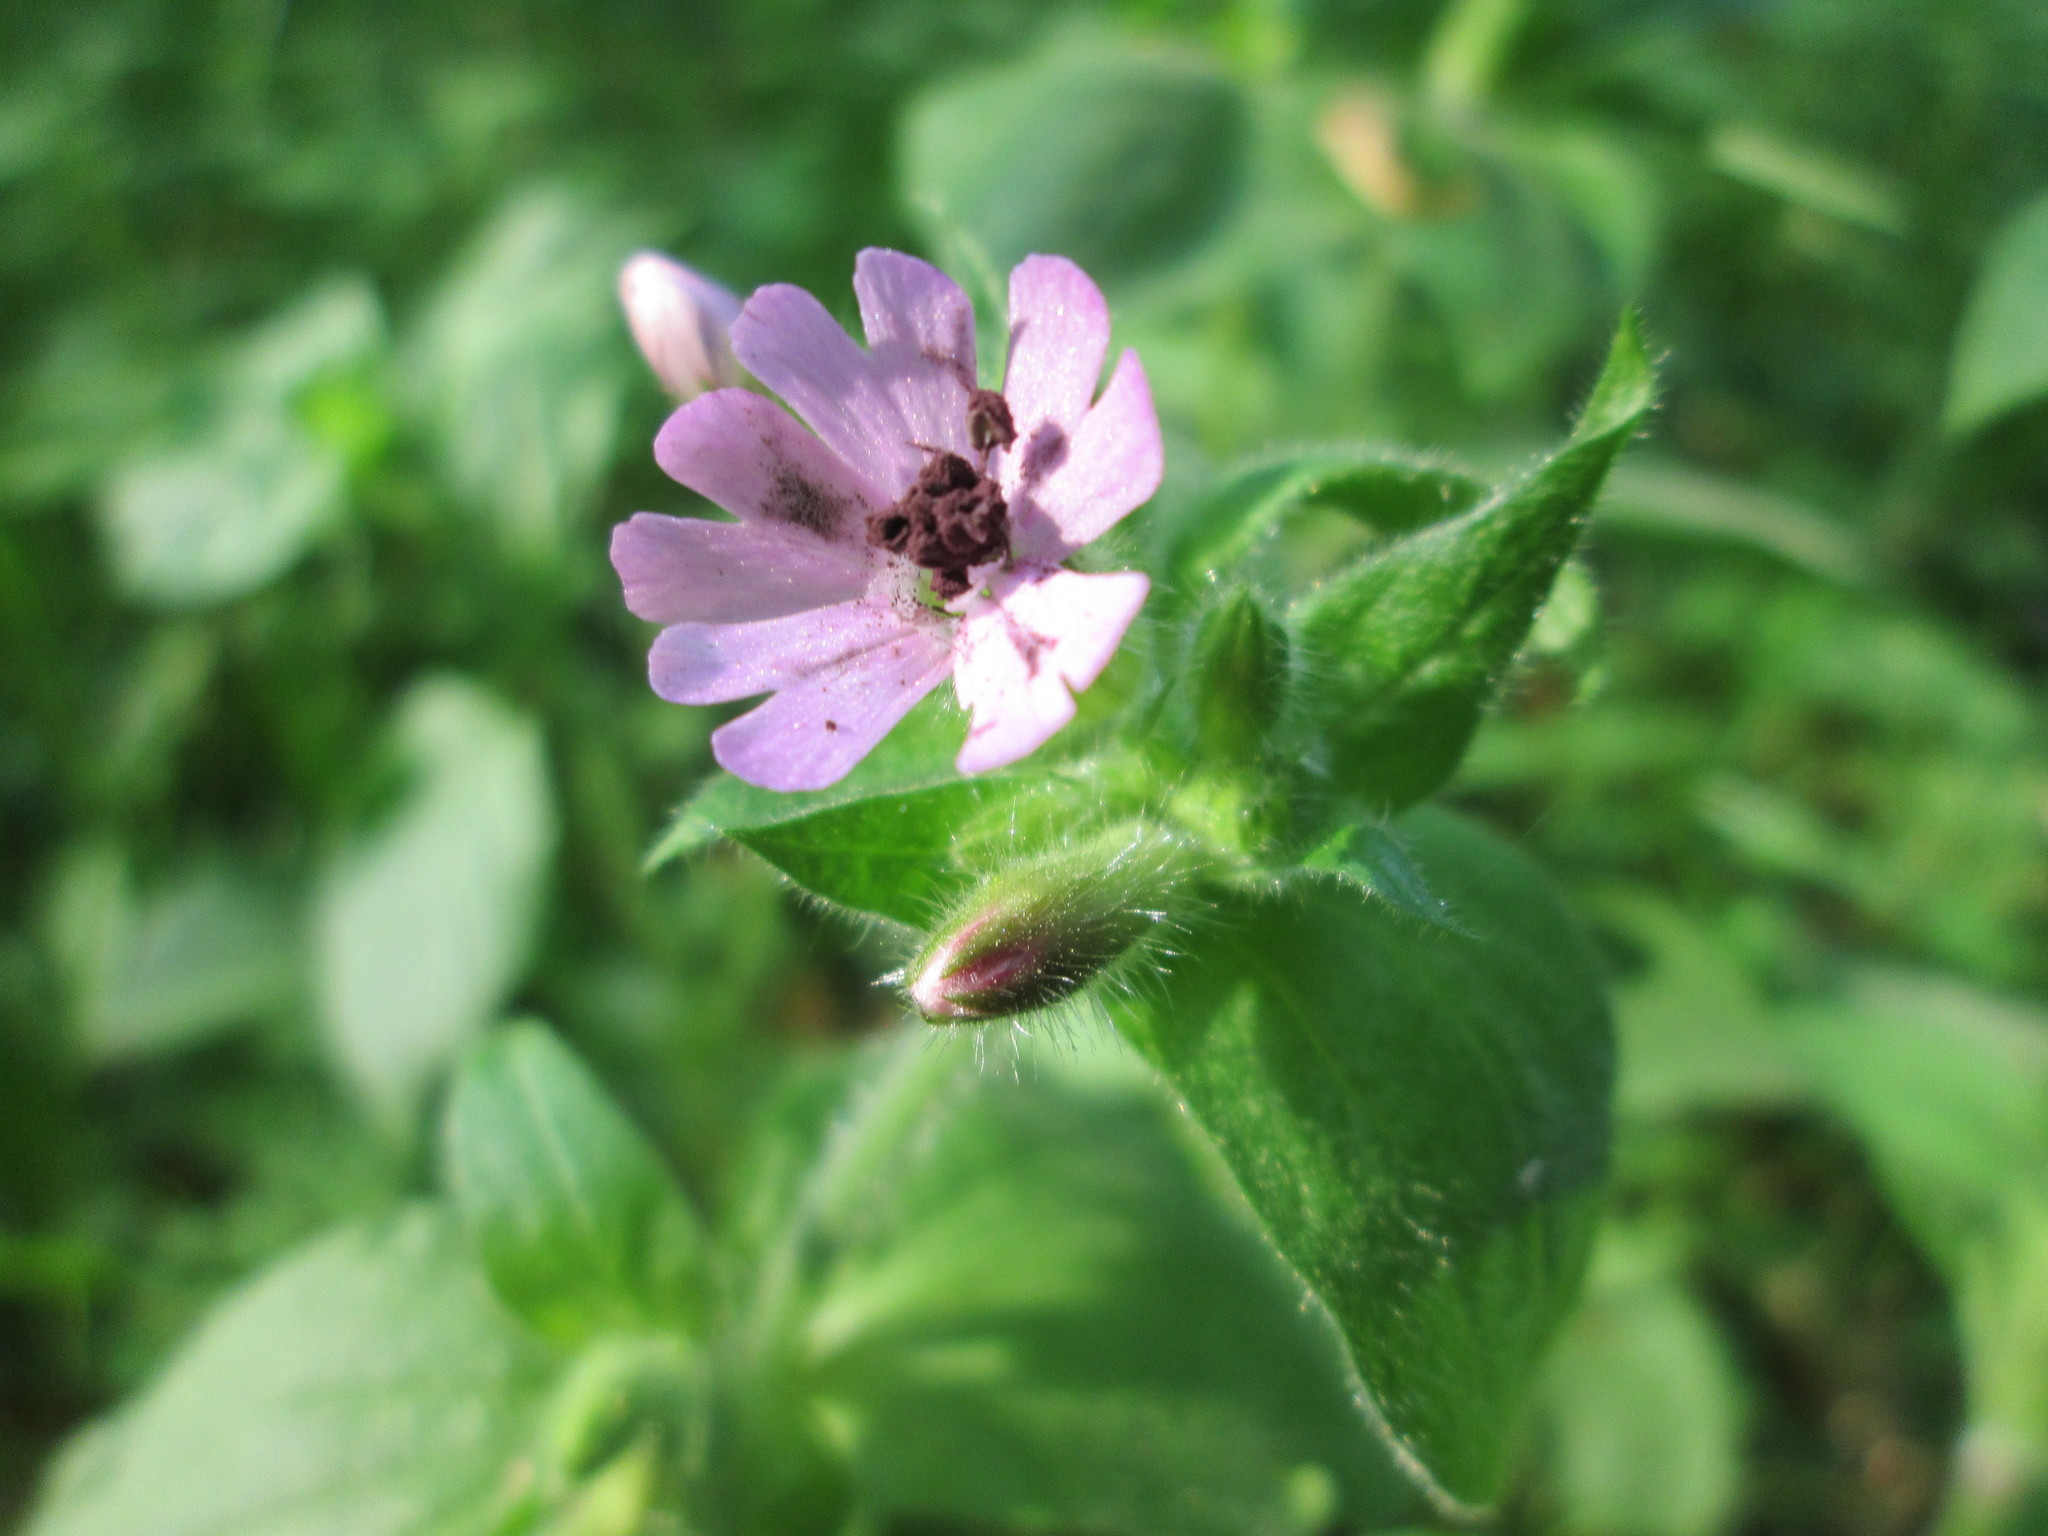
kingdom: Plantae
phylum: Tracheophyta
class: Magnoliopsida
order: Caryophyllales
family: Caryophyllaceae
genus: Silene
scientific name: Silene dioica
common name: Red campion
